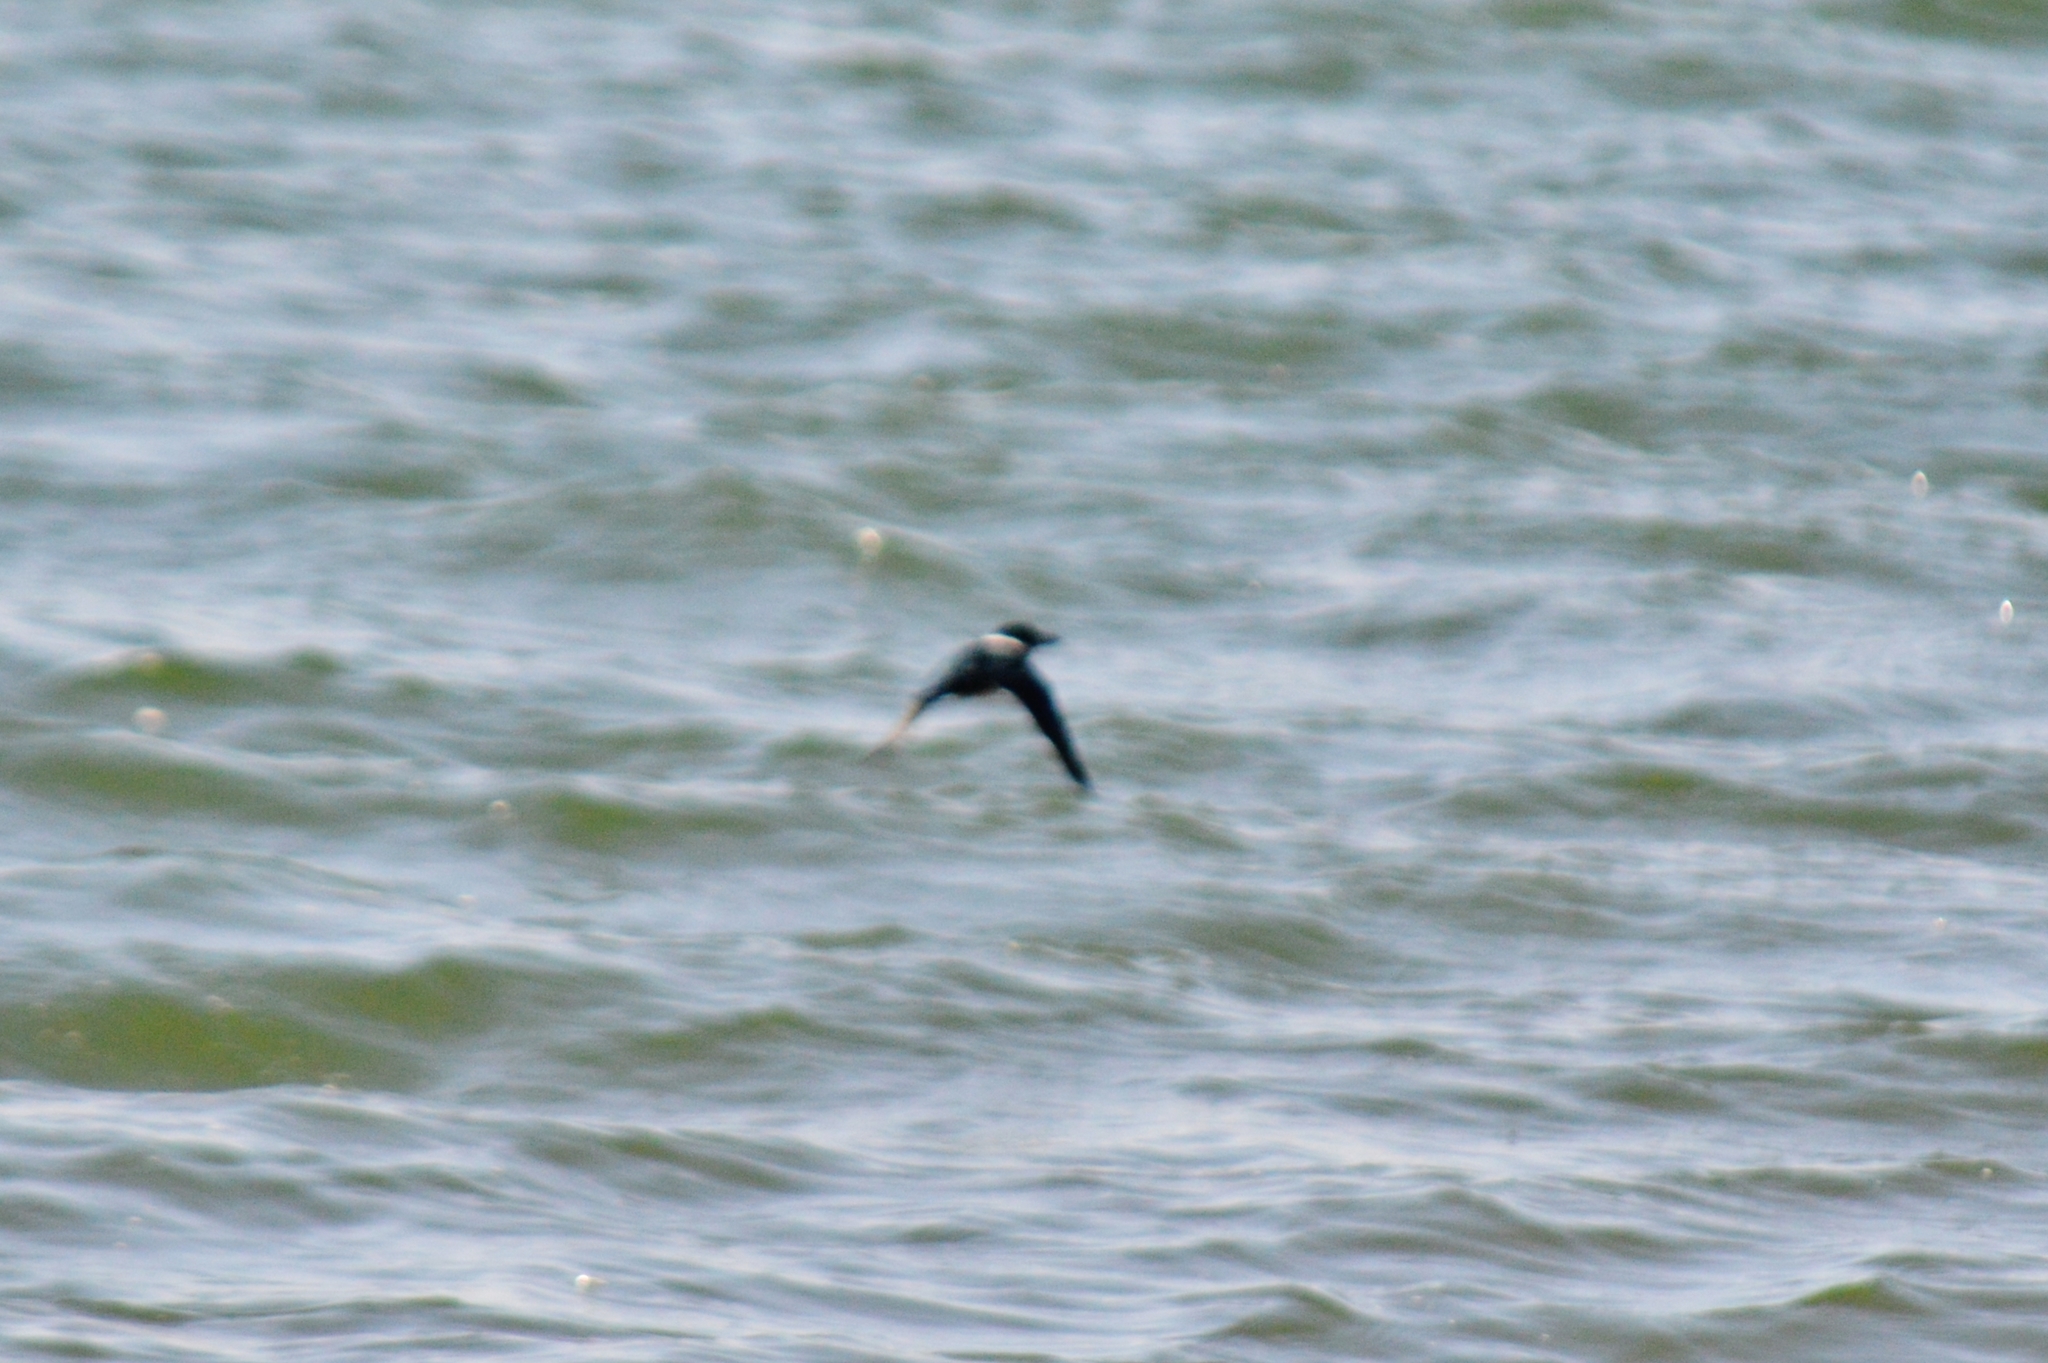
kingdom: Animalia
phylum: Chordata
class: Aves
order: Coraciiformes
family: Alcedinidae
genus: Chloroceryle
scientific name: Chloroceryle americana
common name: Green kingfisher
